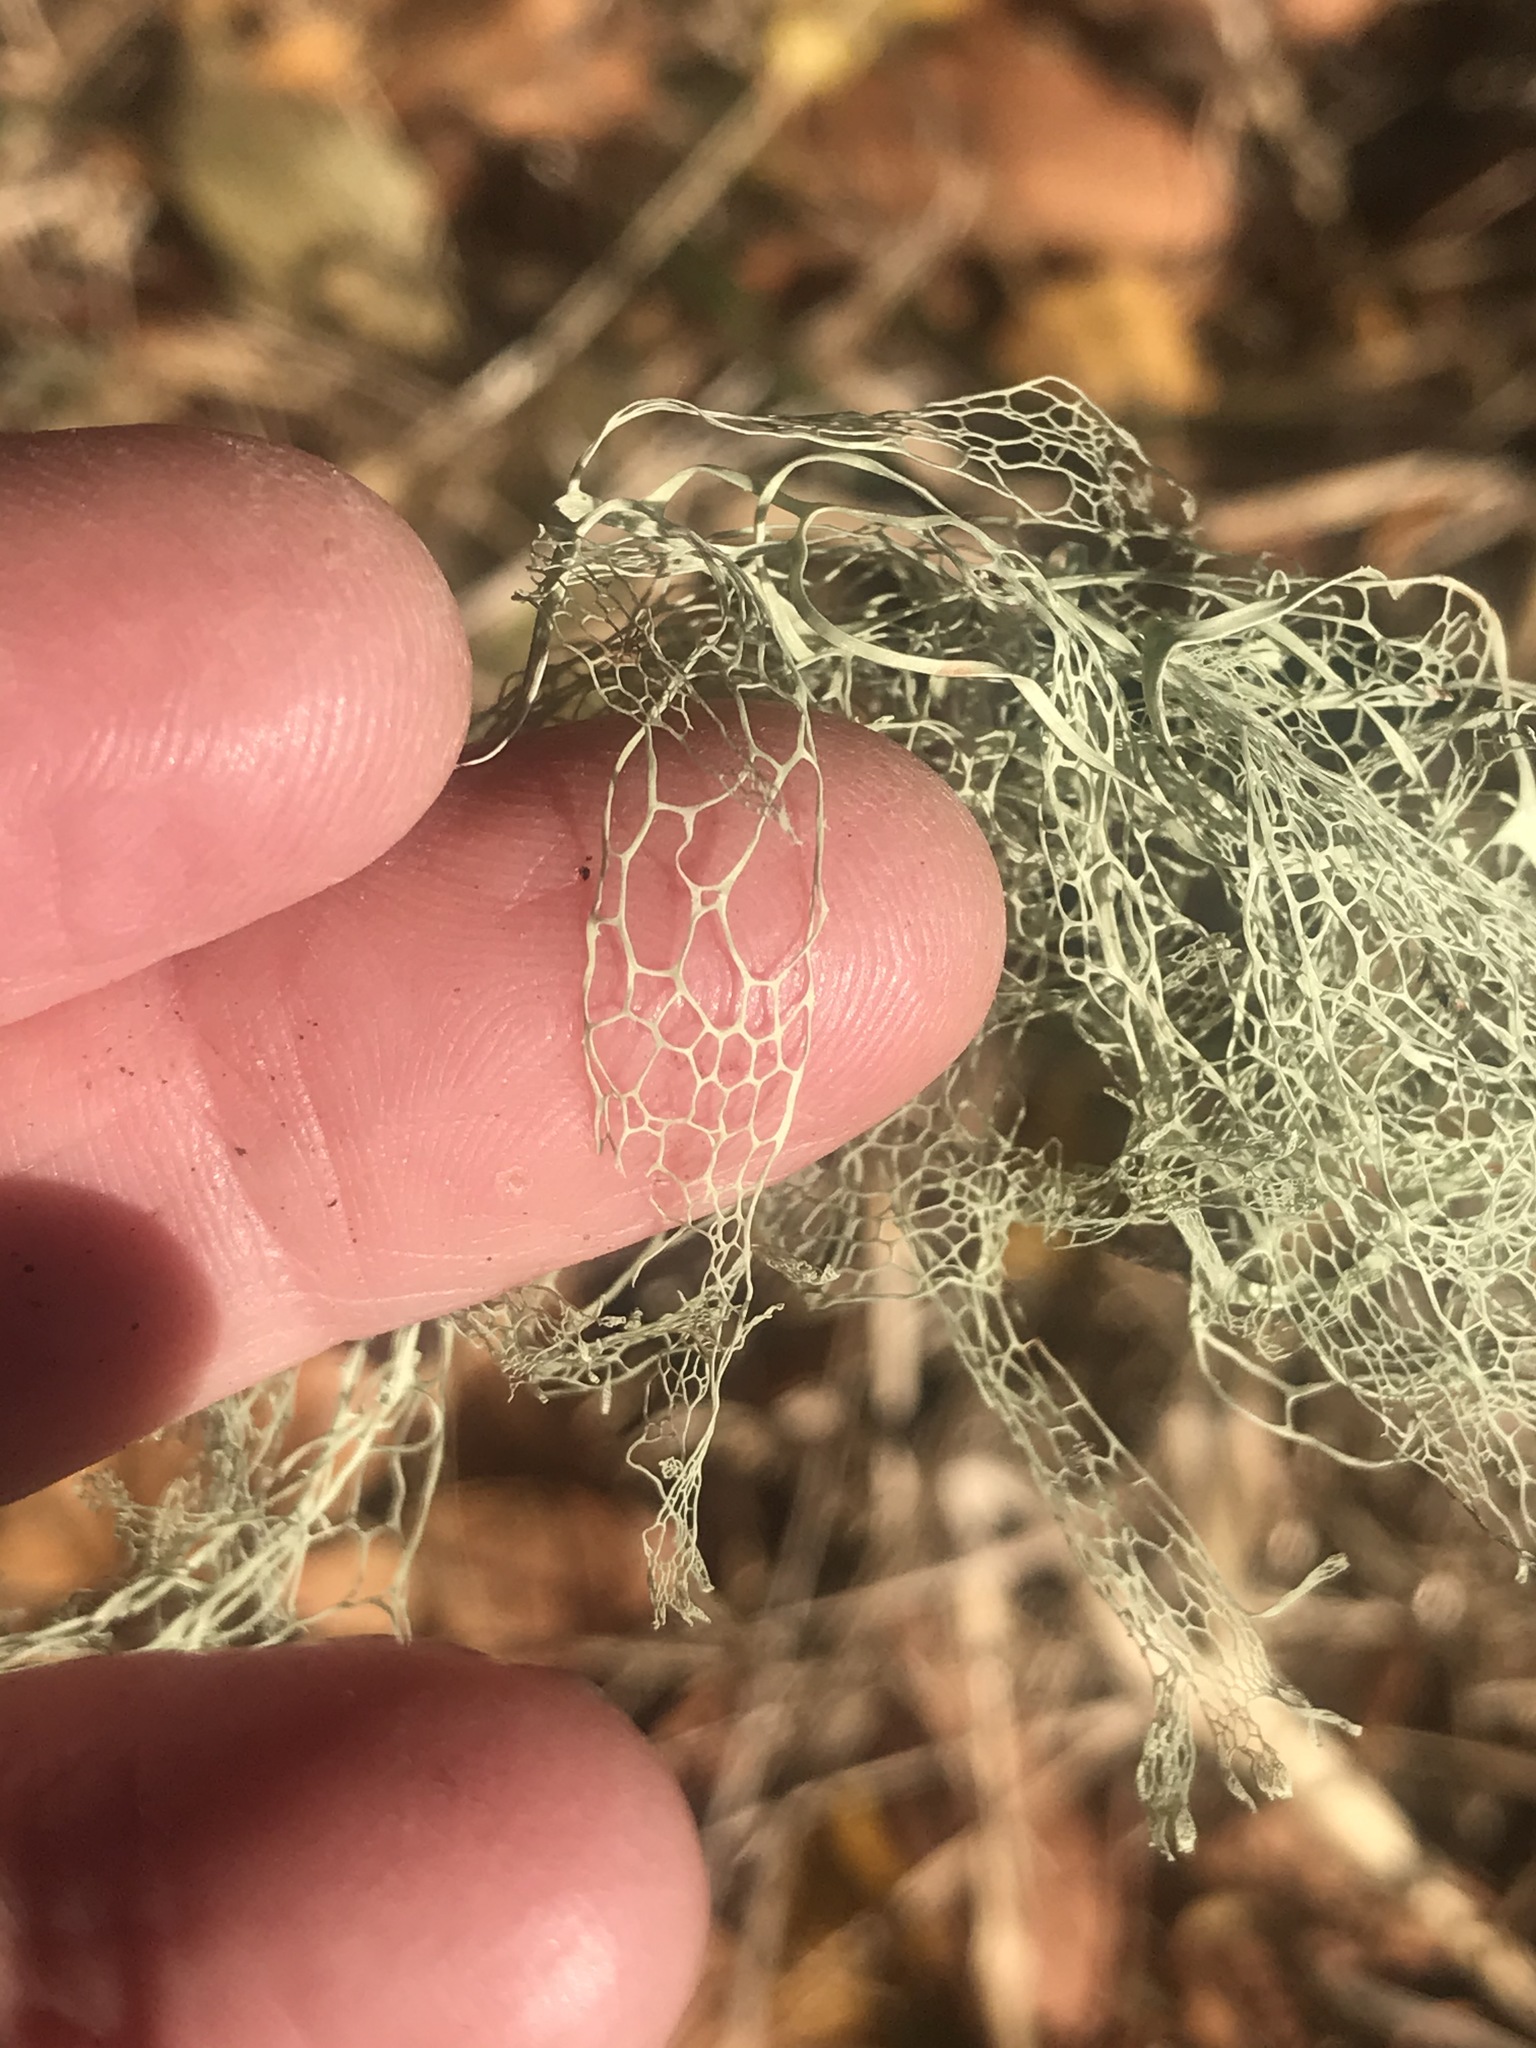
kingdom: Fungi
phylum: Ascomycota
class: Lecanoromycetes
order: Lecanorales
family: Ramalinaceae
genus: Ramalina
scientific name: Ramalina menziesii
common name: Lace lichen
